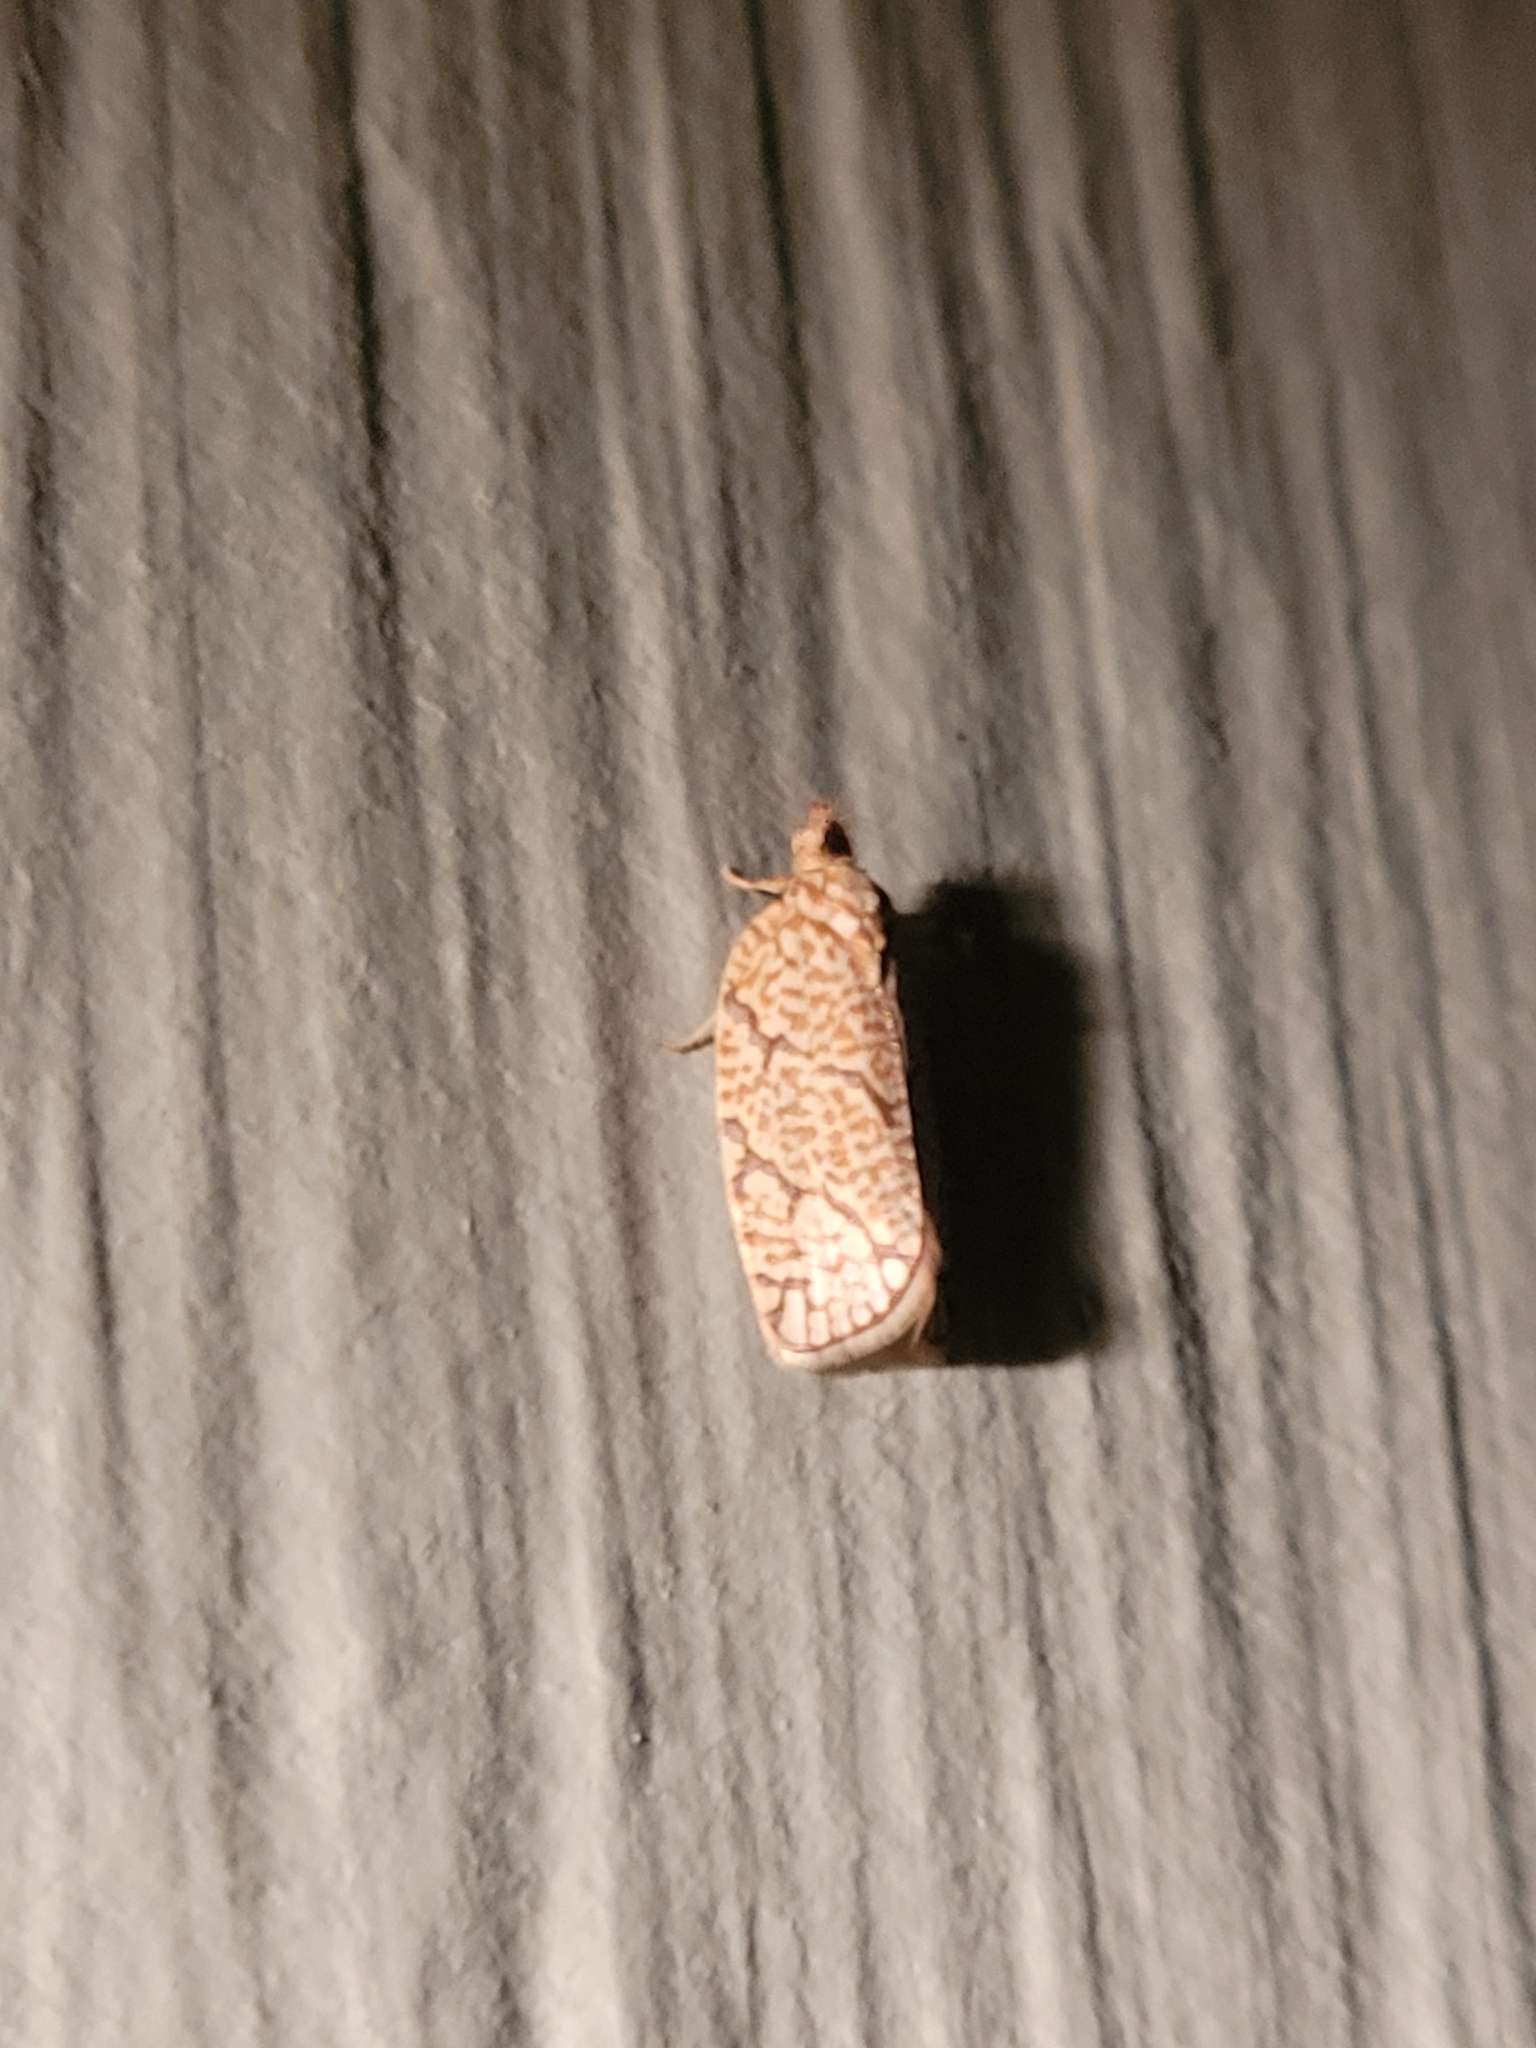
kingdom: Animalia
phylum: Arthropoda
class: Insecta
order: Lepidoptera
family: Tortricidae
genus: Argyrotaenia
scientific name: Argyrotaenia quercifoliana
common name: Yellow-winged oak leafroller moth
